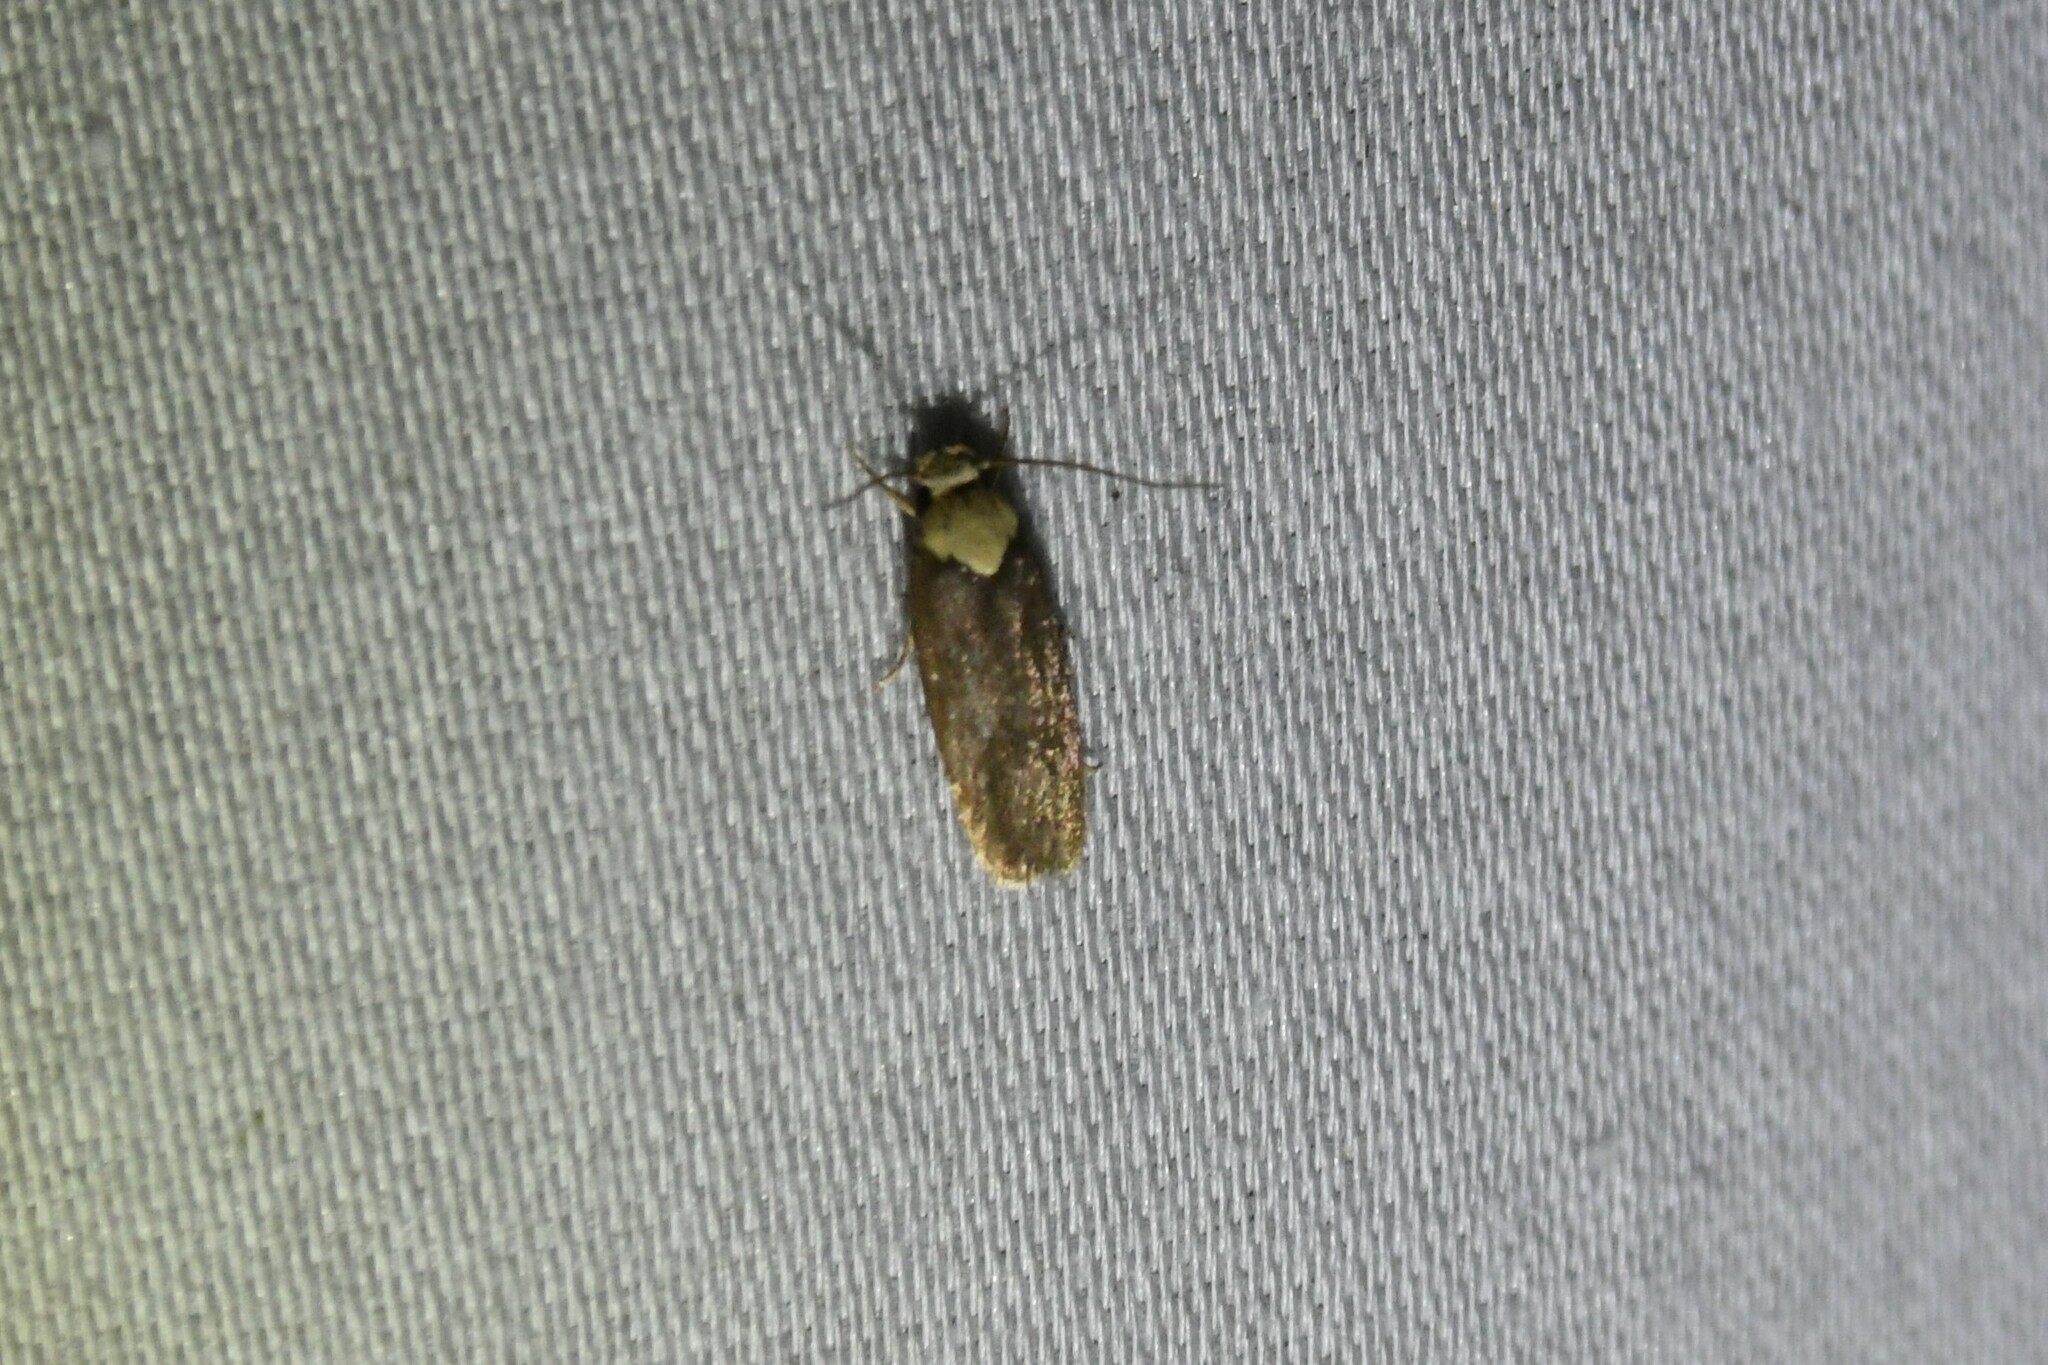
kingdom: Animalia
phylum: Arthropoda
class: Insecta
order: Lepidoptera
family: Depressariidae
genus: Depressaria
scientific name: Depressaria depressana
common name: Lost flat-body
